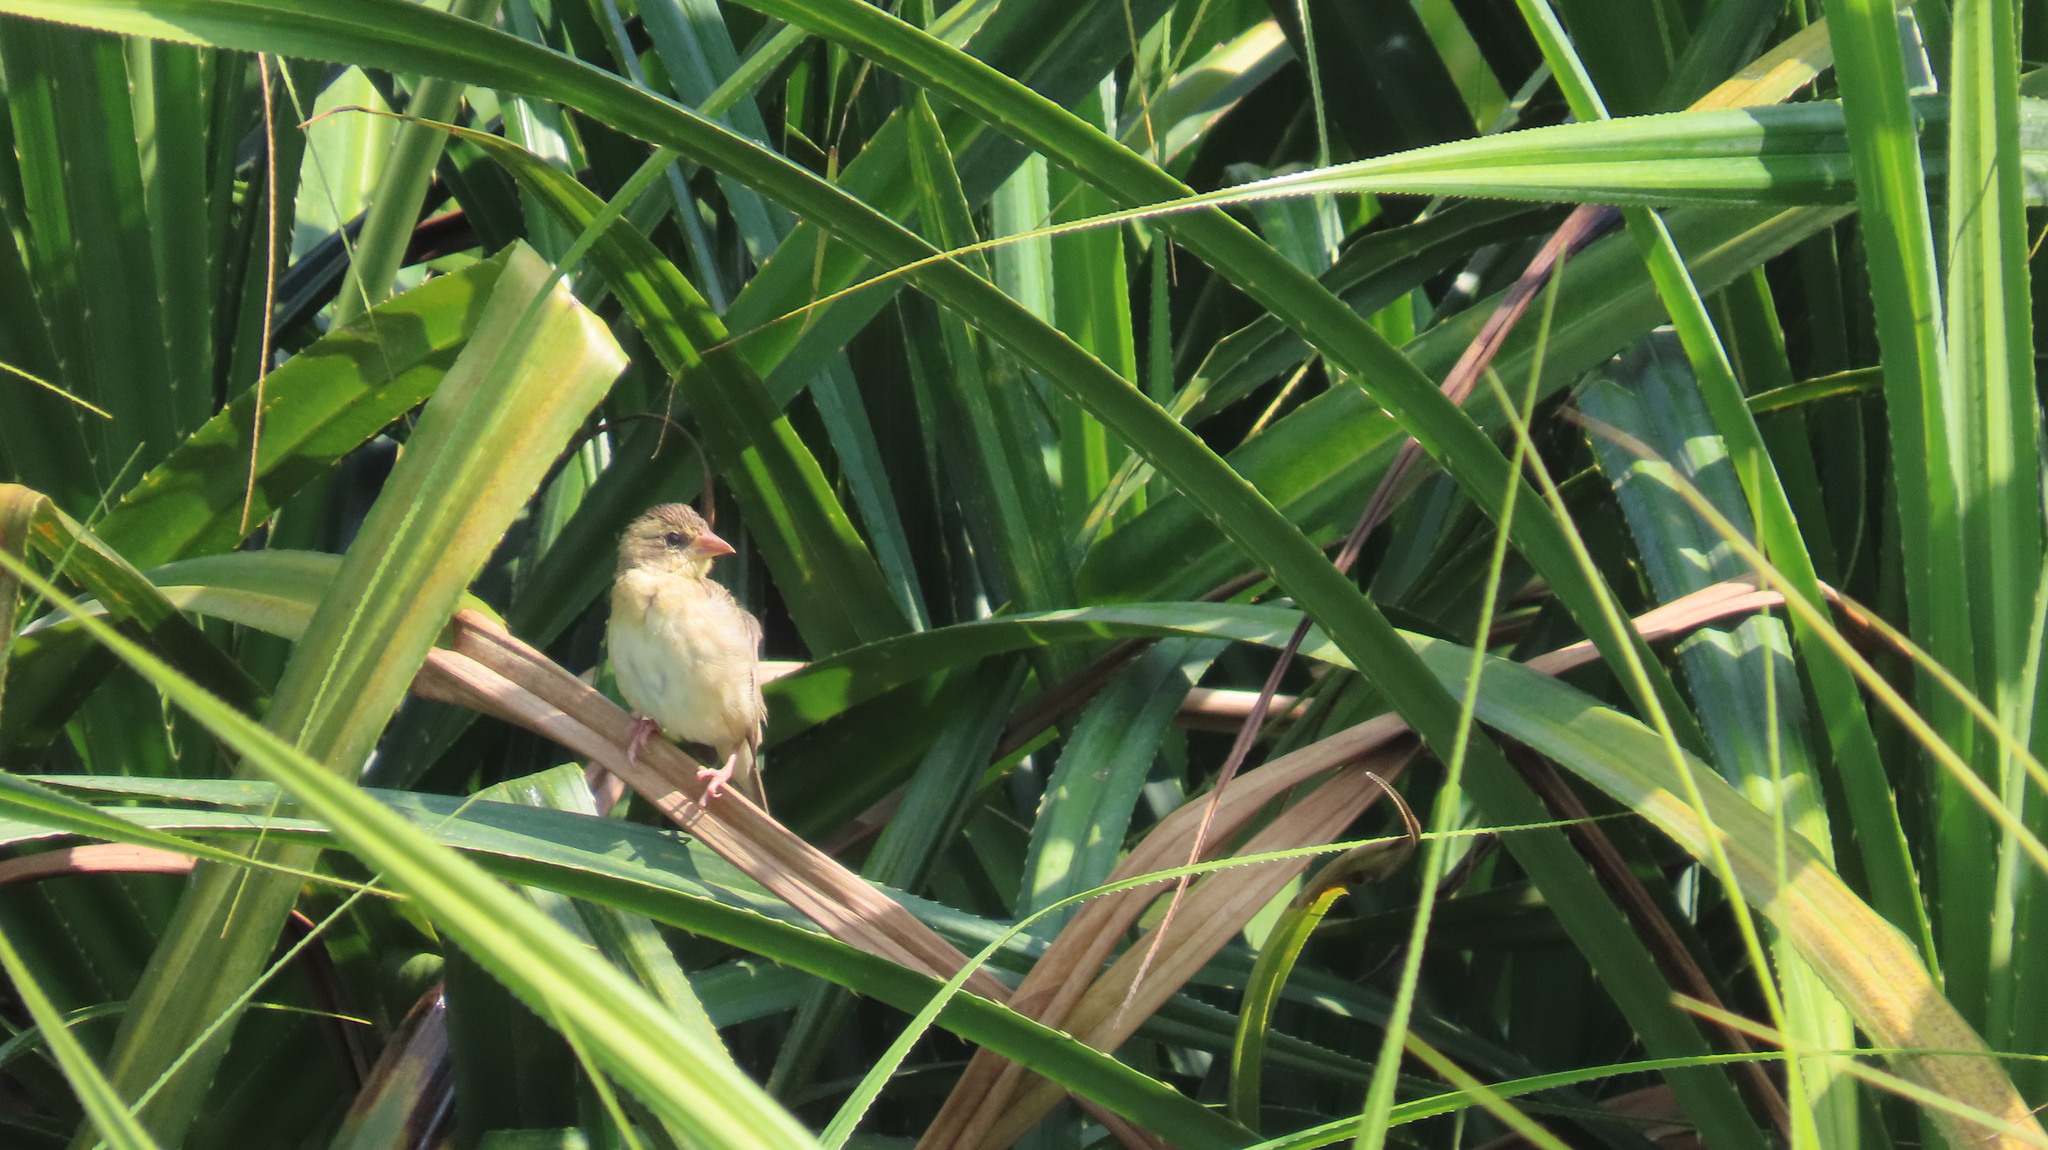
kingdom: Animalia
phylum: Chordata
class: Aves
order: Passeriformes
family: Ploceidae
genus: Ploceus
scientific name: Ploceus philippinus
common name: Baya weaver
